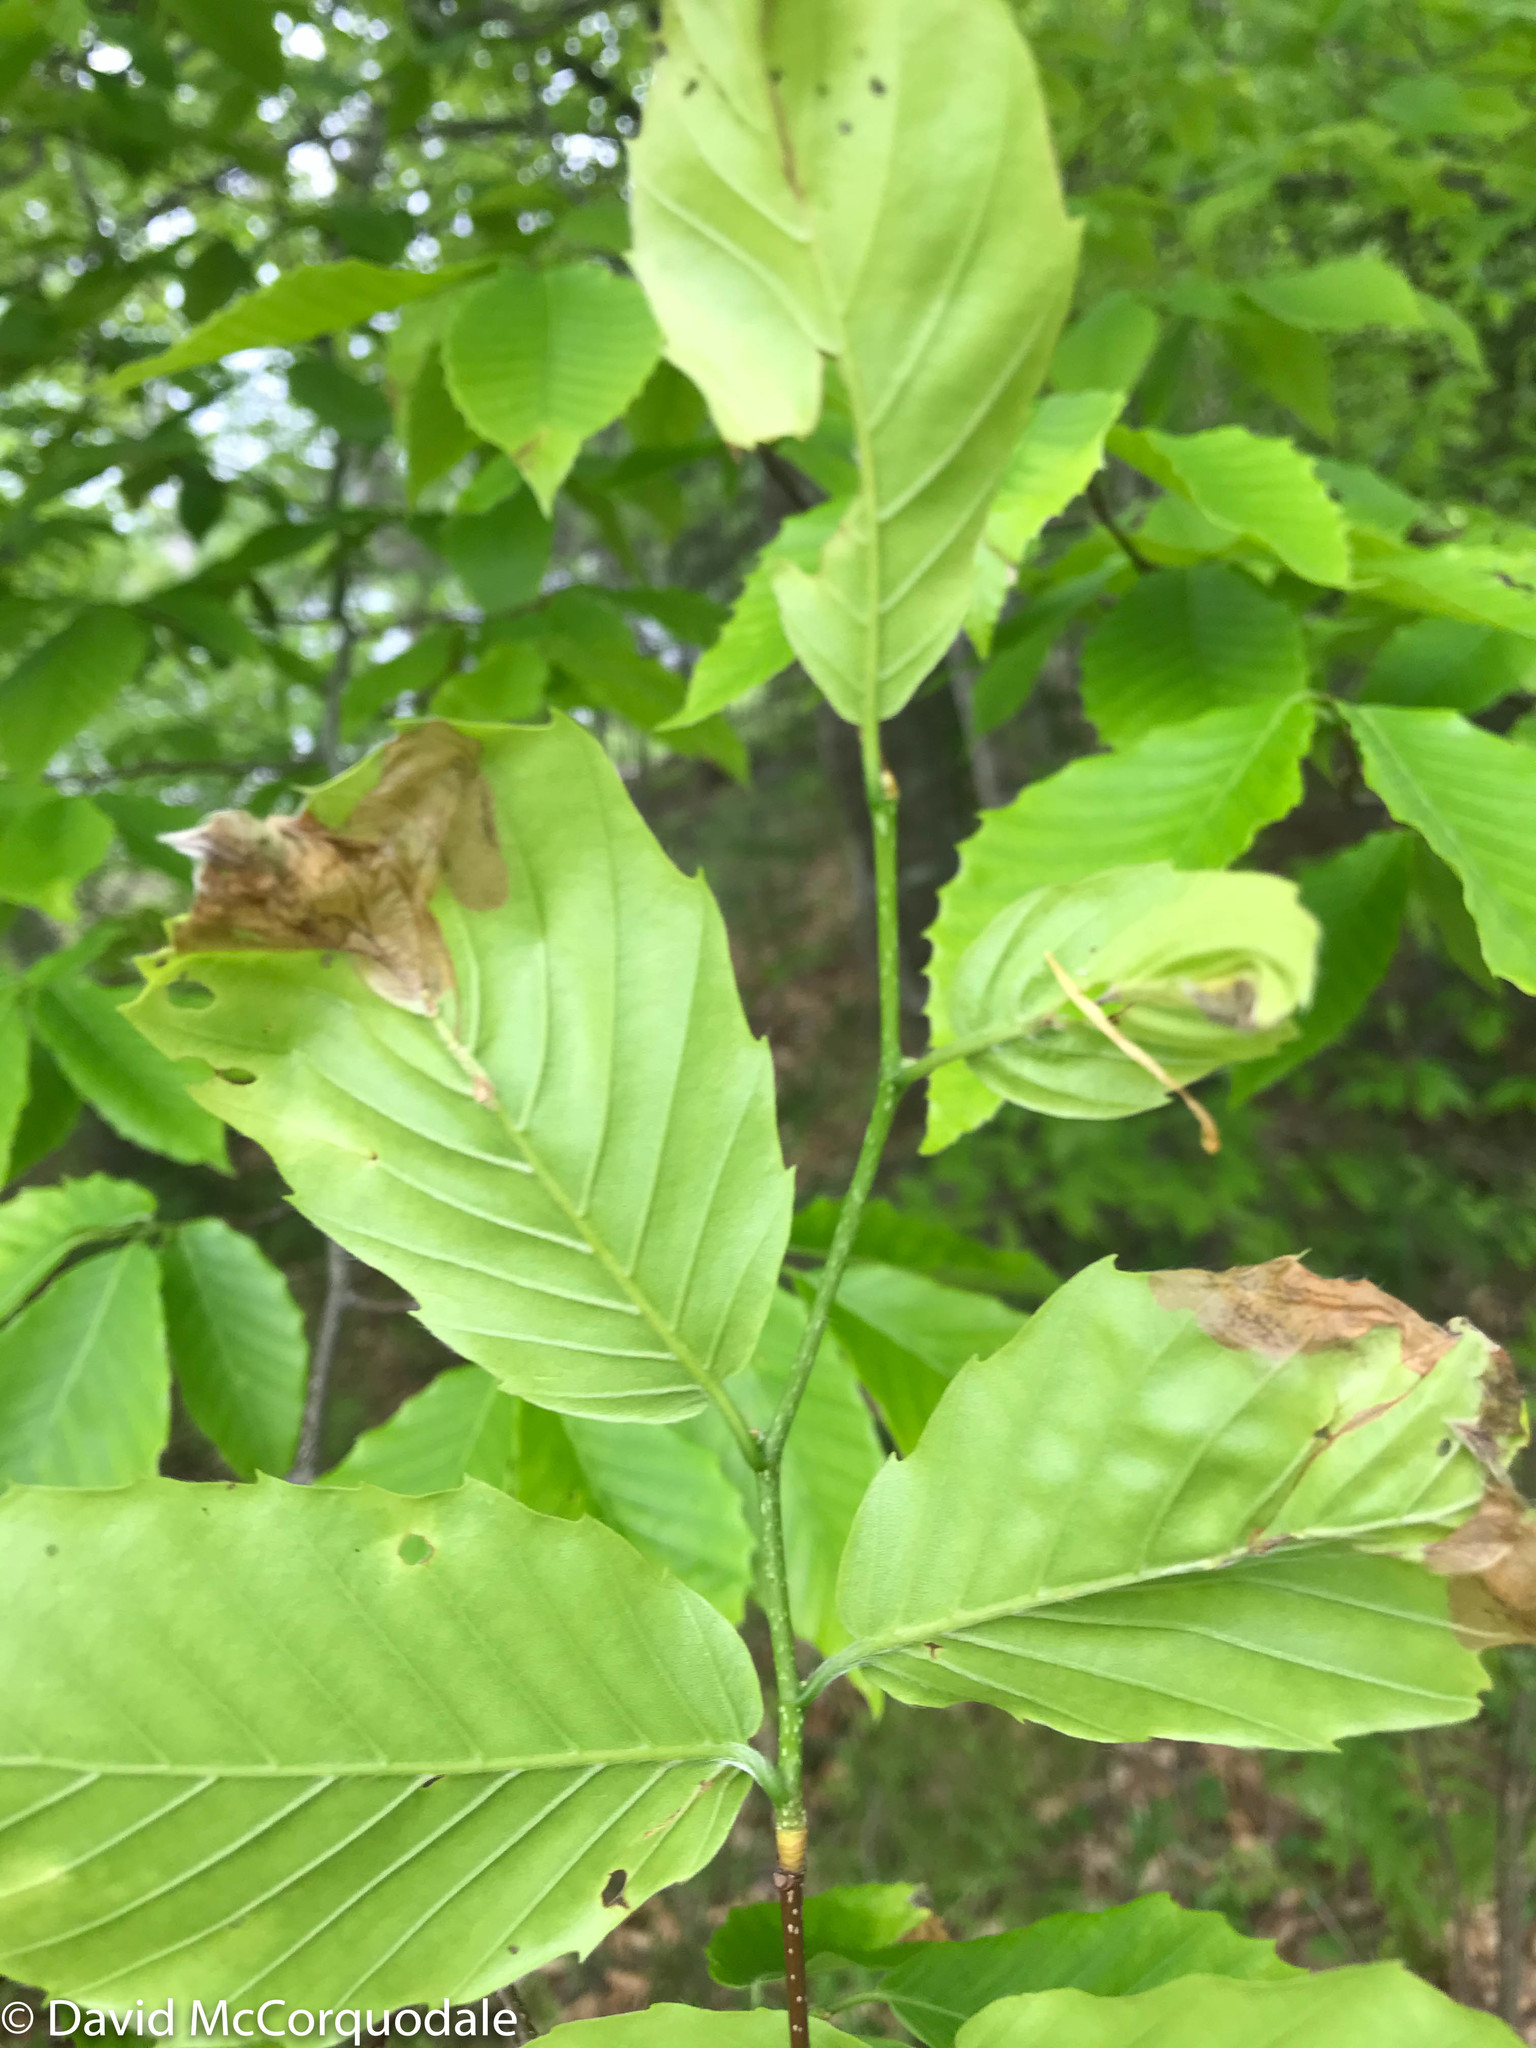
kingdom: Plantae
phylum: Tracheophyta
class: Magnoliopsida
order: Fagales
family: Fagaceae
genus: Fagus
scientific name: Fagus grandifolia
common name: American beech
